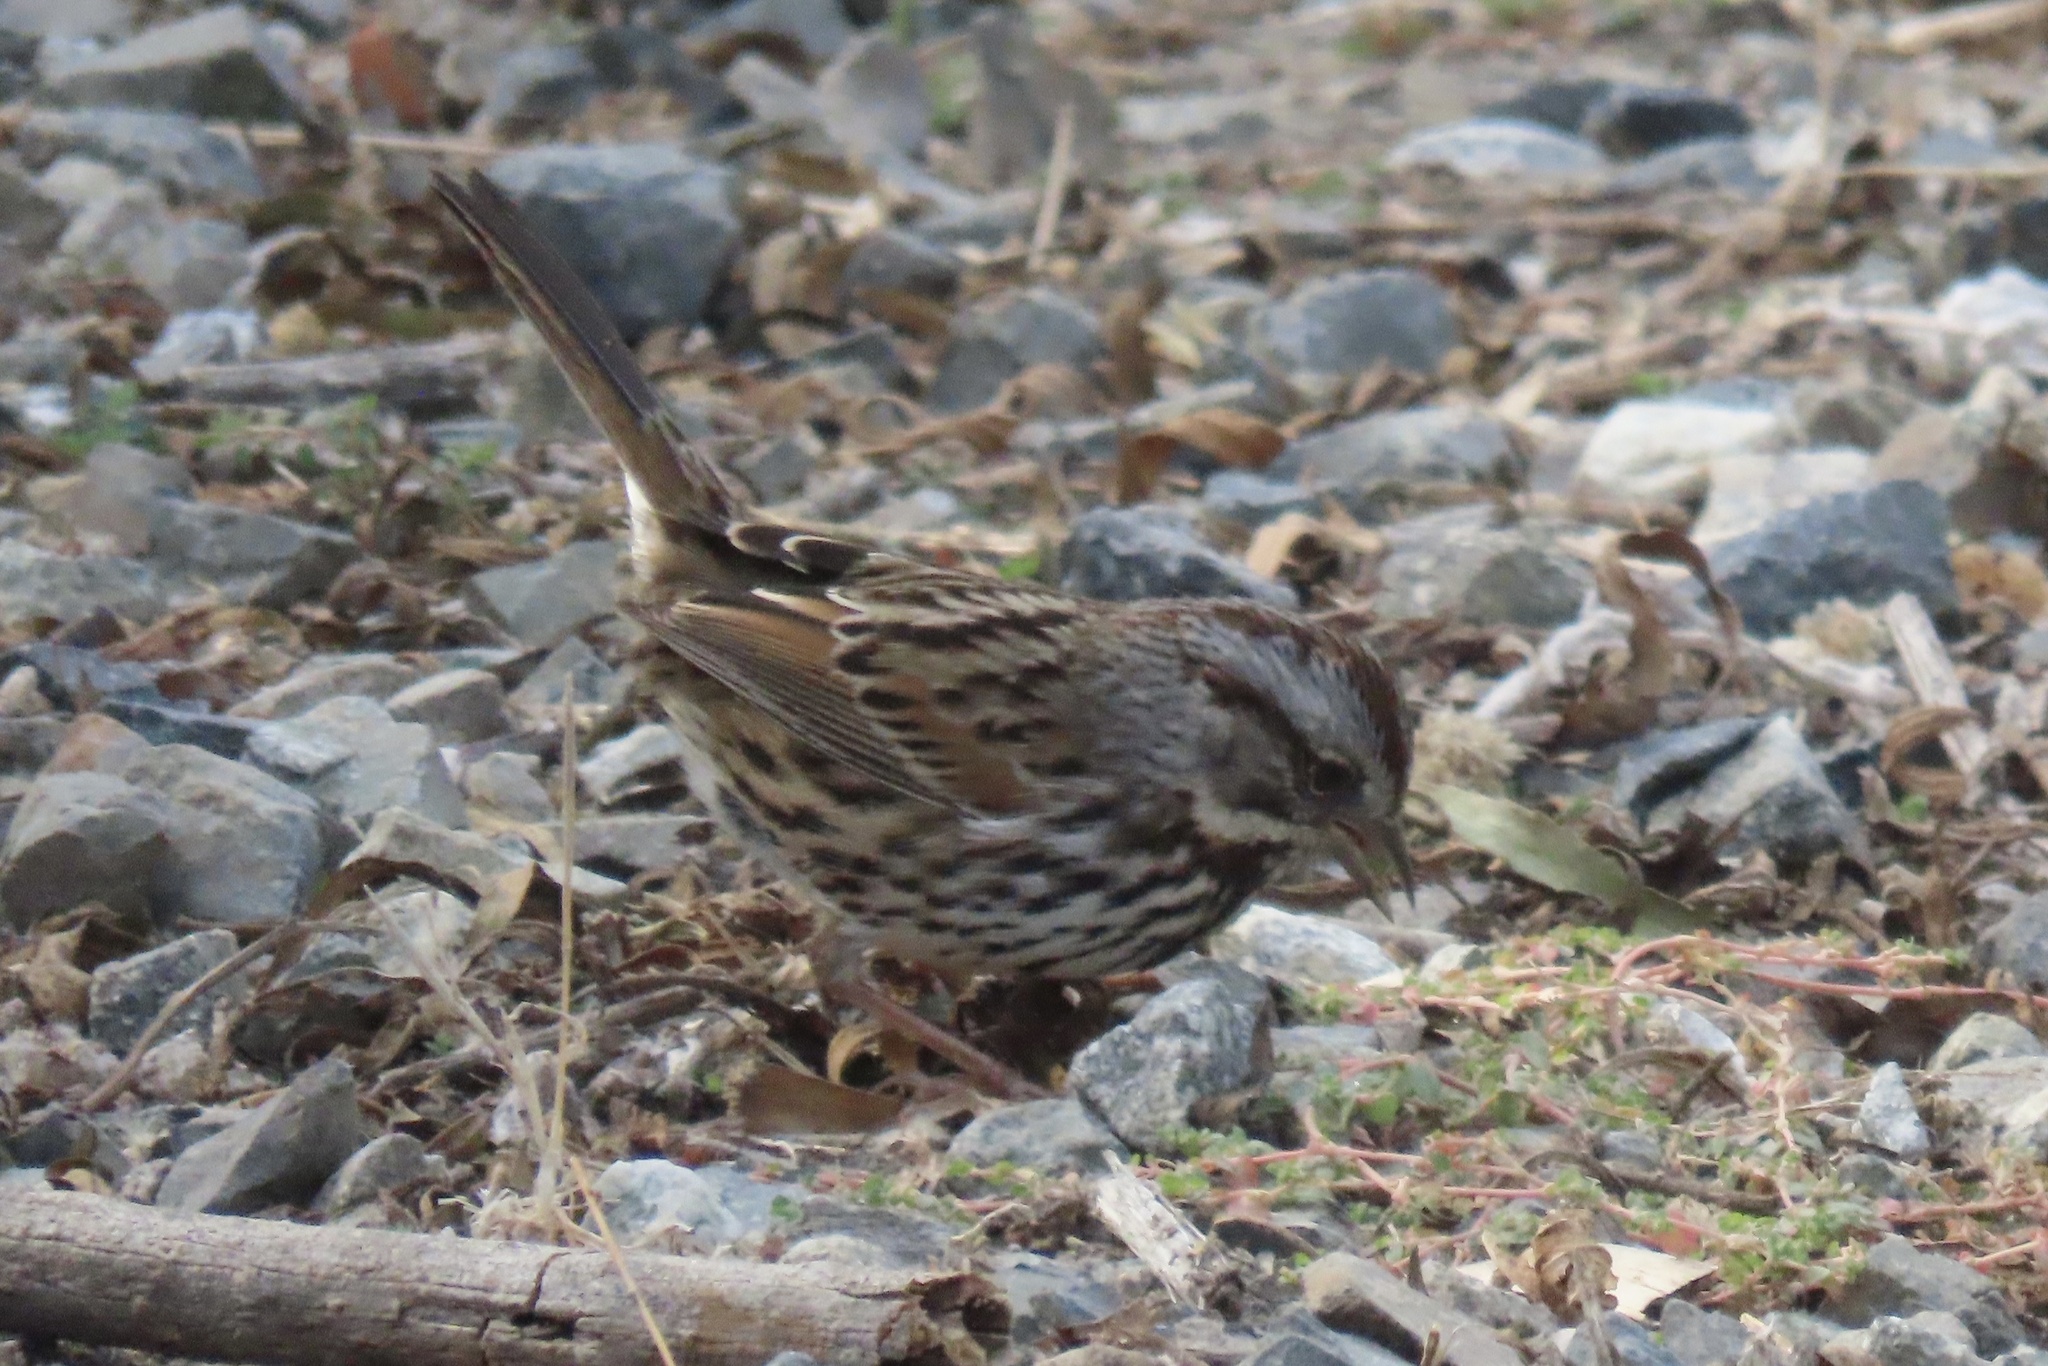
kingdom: Animalia
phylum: Chordata
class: Aves
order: Passeriformes
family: Passerellidae
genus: Melospiza
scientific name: Melospiza melodia
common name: Song sparrow
